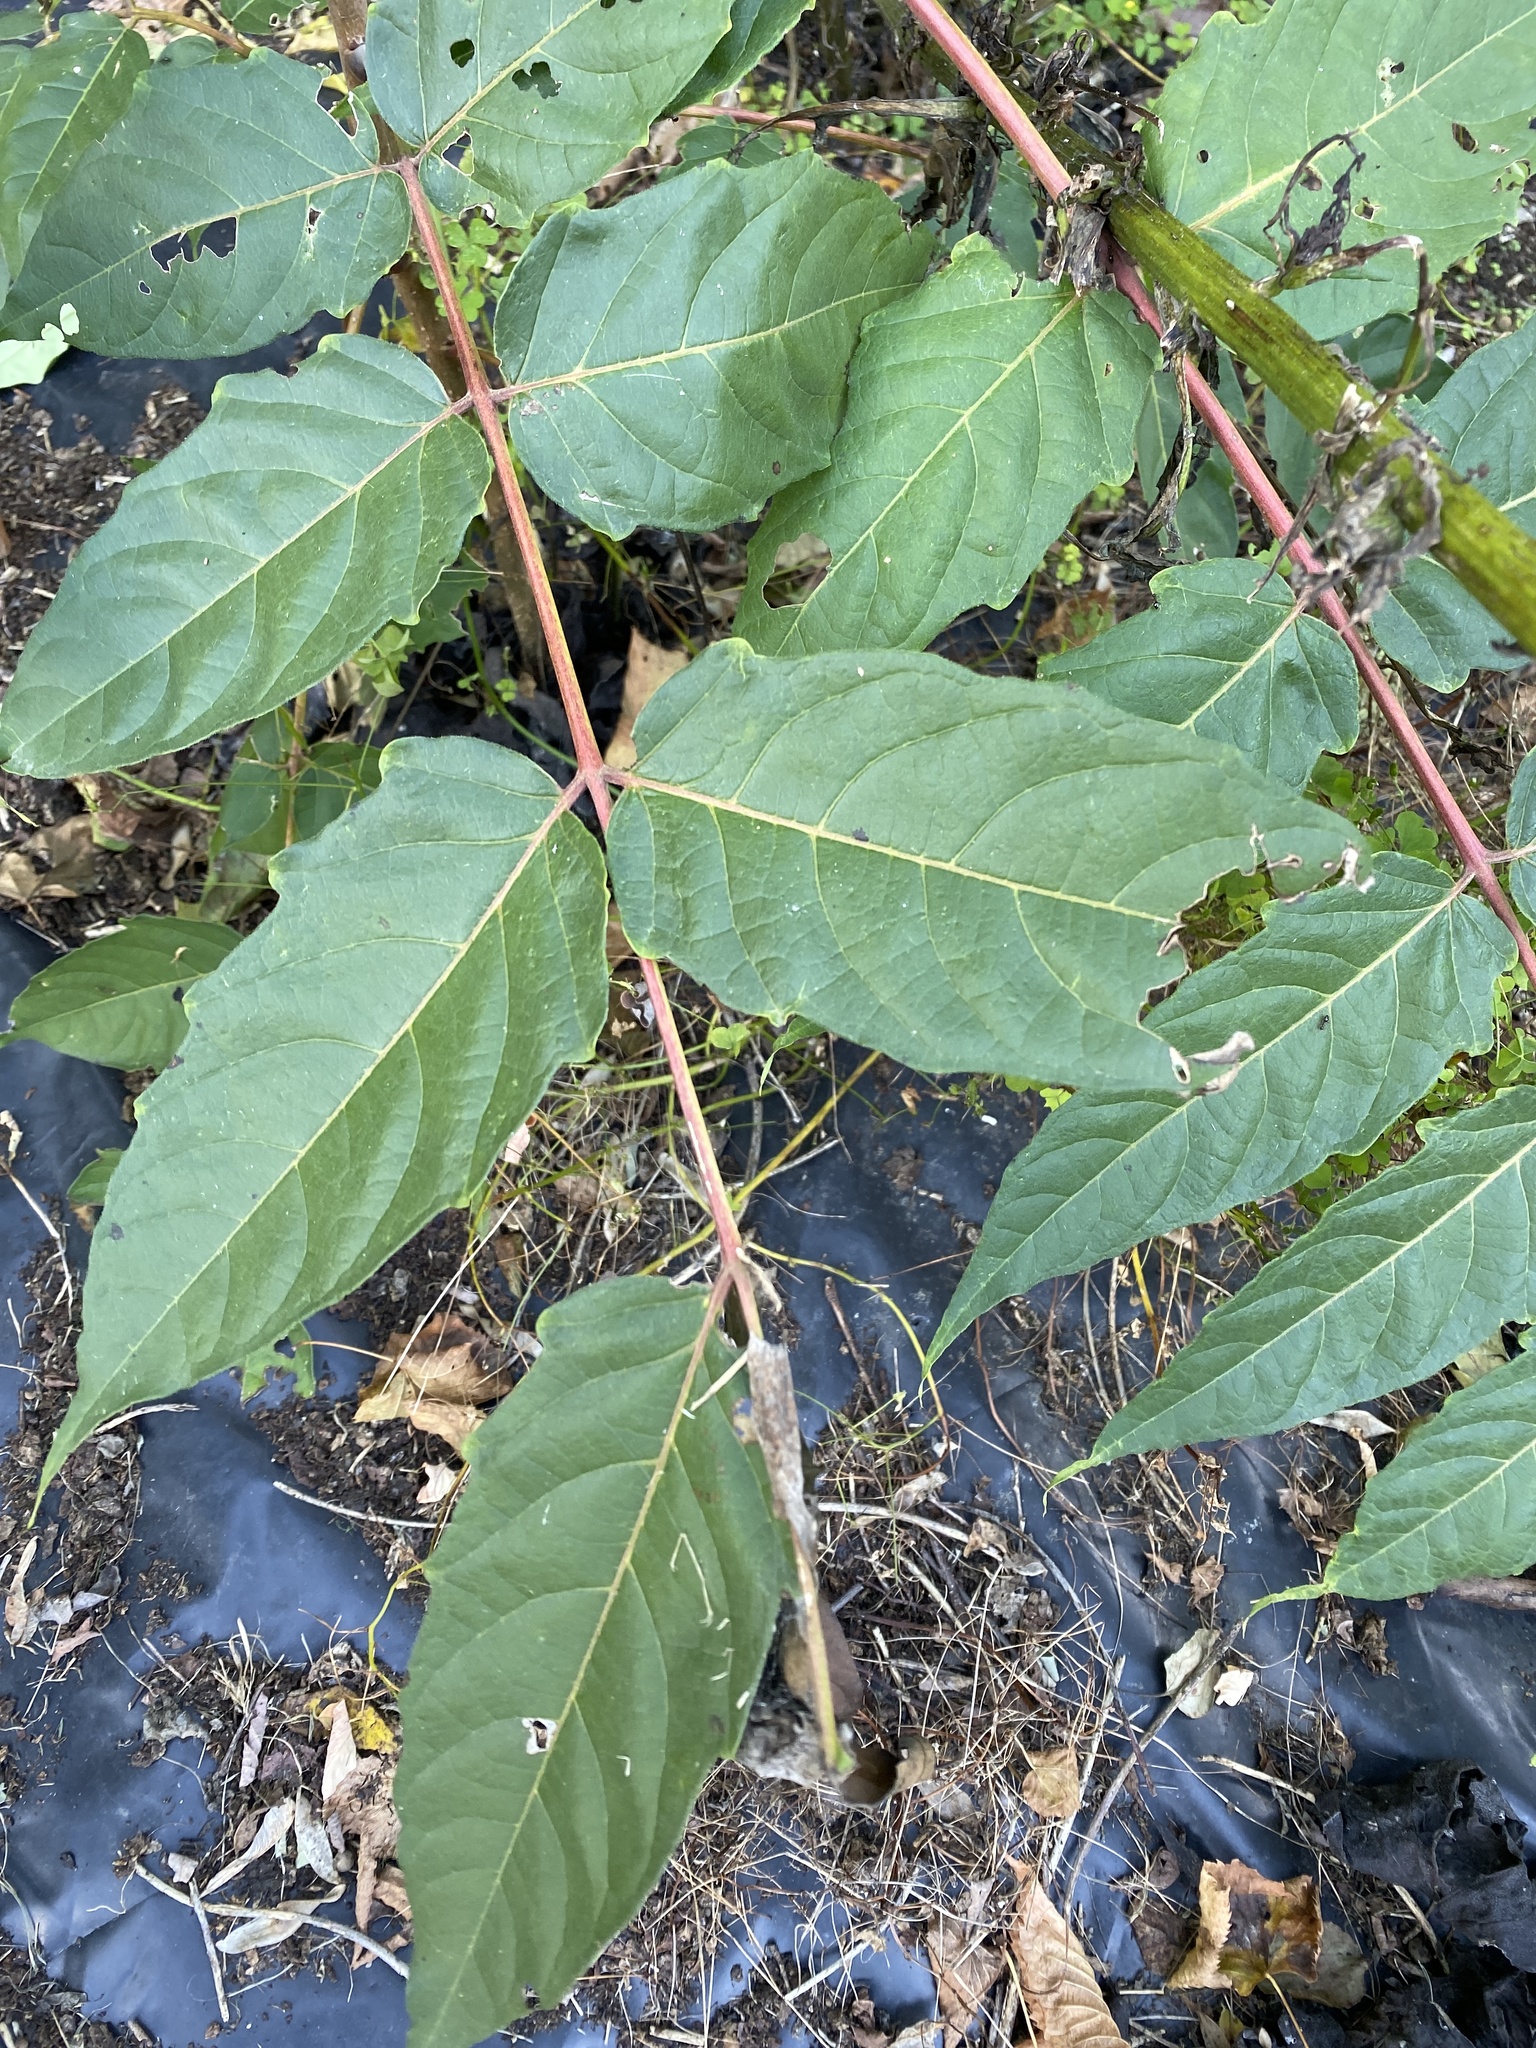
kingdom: Plantae
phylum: Tracheophyta
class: Magnoliopsida
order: Sapindales
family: Simaroubaceae
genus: Ailanthus
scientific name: Ailanthus altissima
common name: Tree-of-heaven
